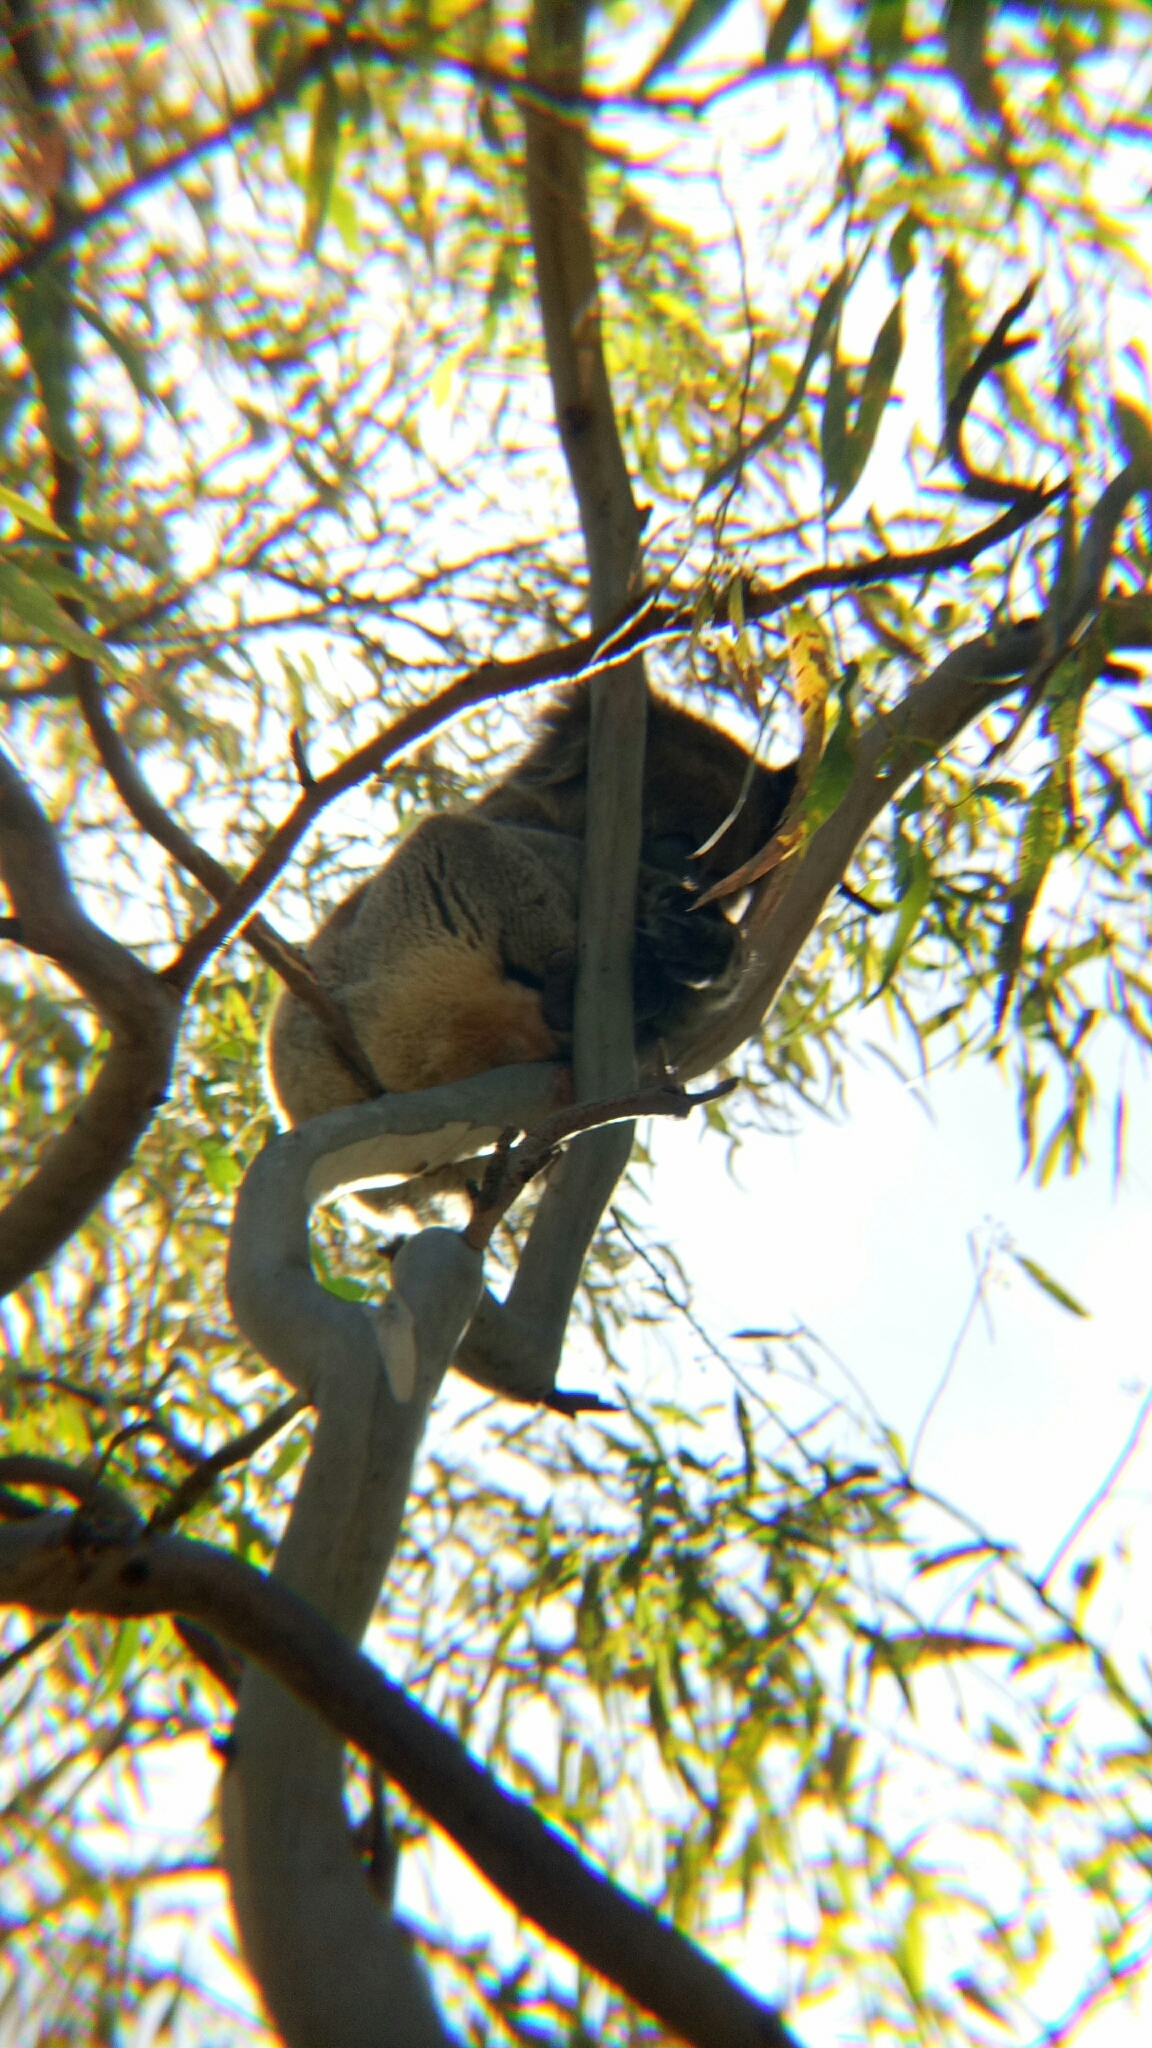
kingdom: Animalia
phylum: Chordata
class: Mammalia
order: Diprotodontia
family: Phascolarctidae
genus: Phascolarctos
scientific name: Phascolarctos cinereus
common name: Koala
